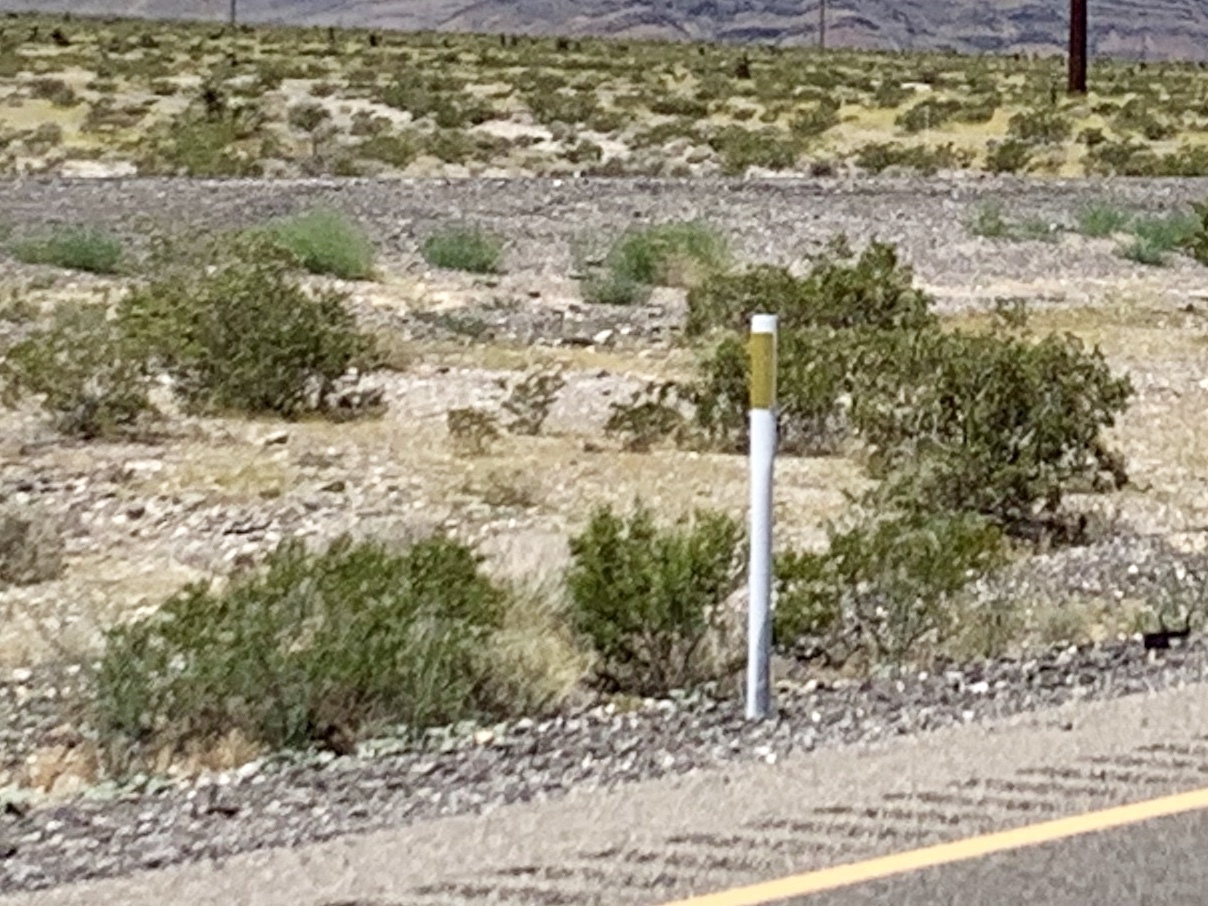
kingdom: Plantae
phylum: Tracheophyta
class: Magnoliopsida
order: Zygophyllales
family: Zygophyllaceae
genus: Larrea
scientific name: Larrea tridentata
